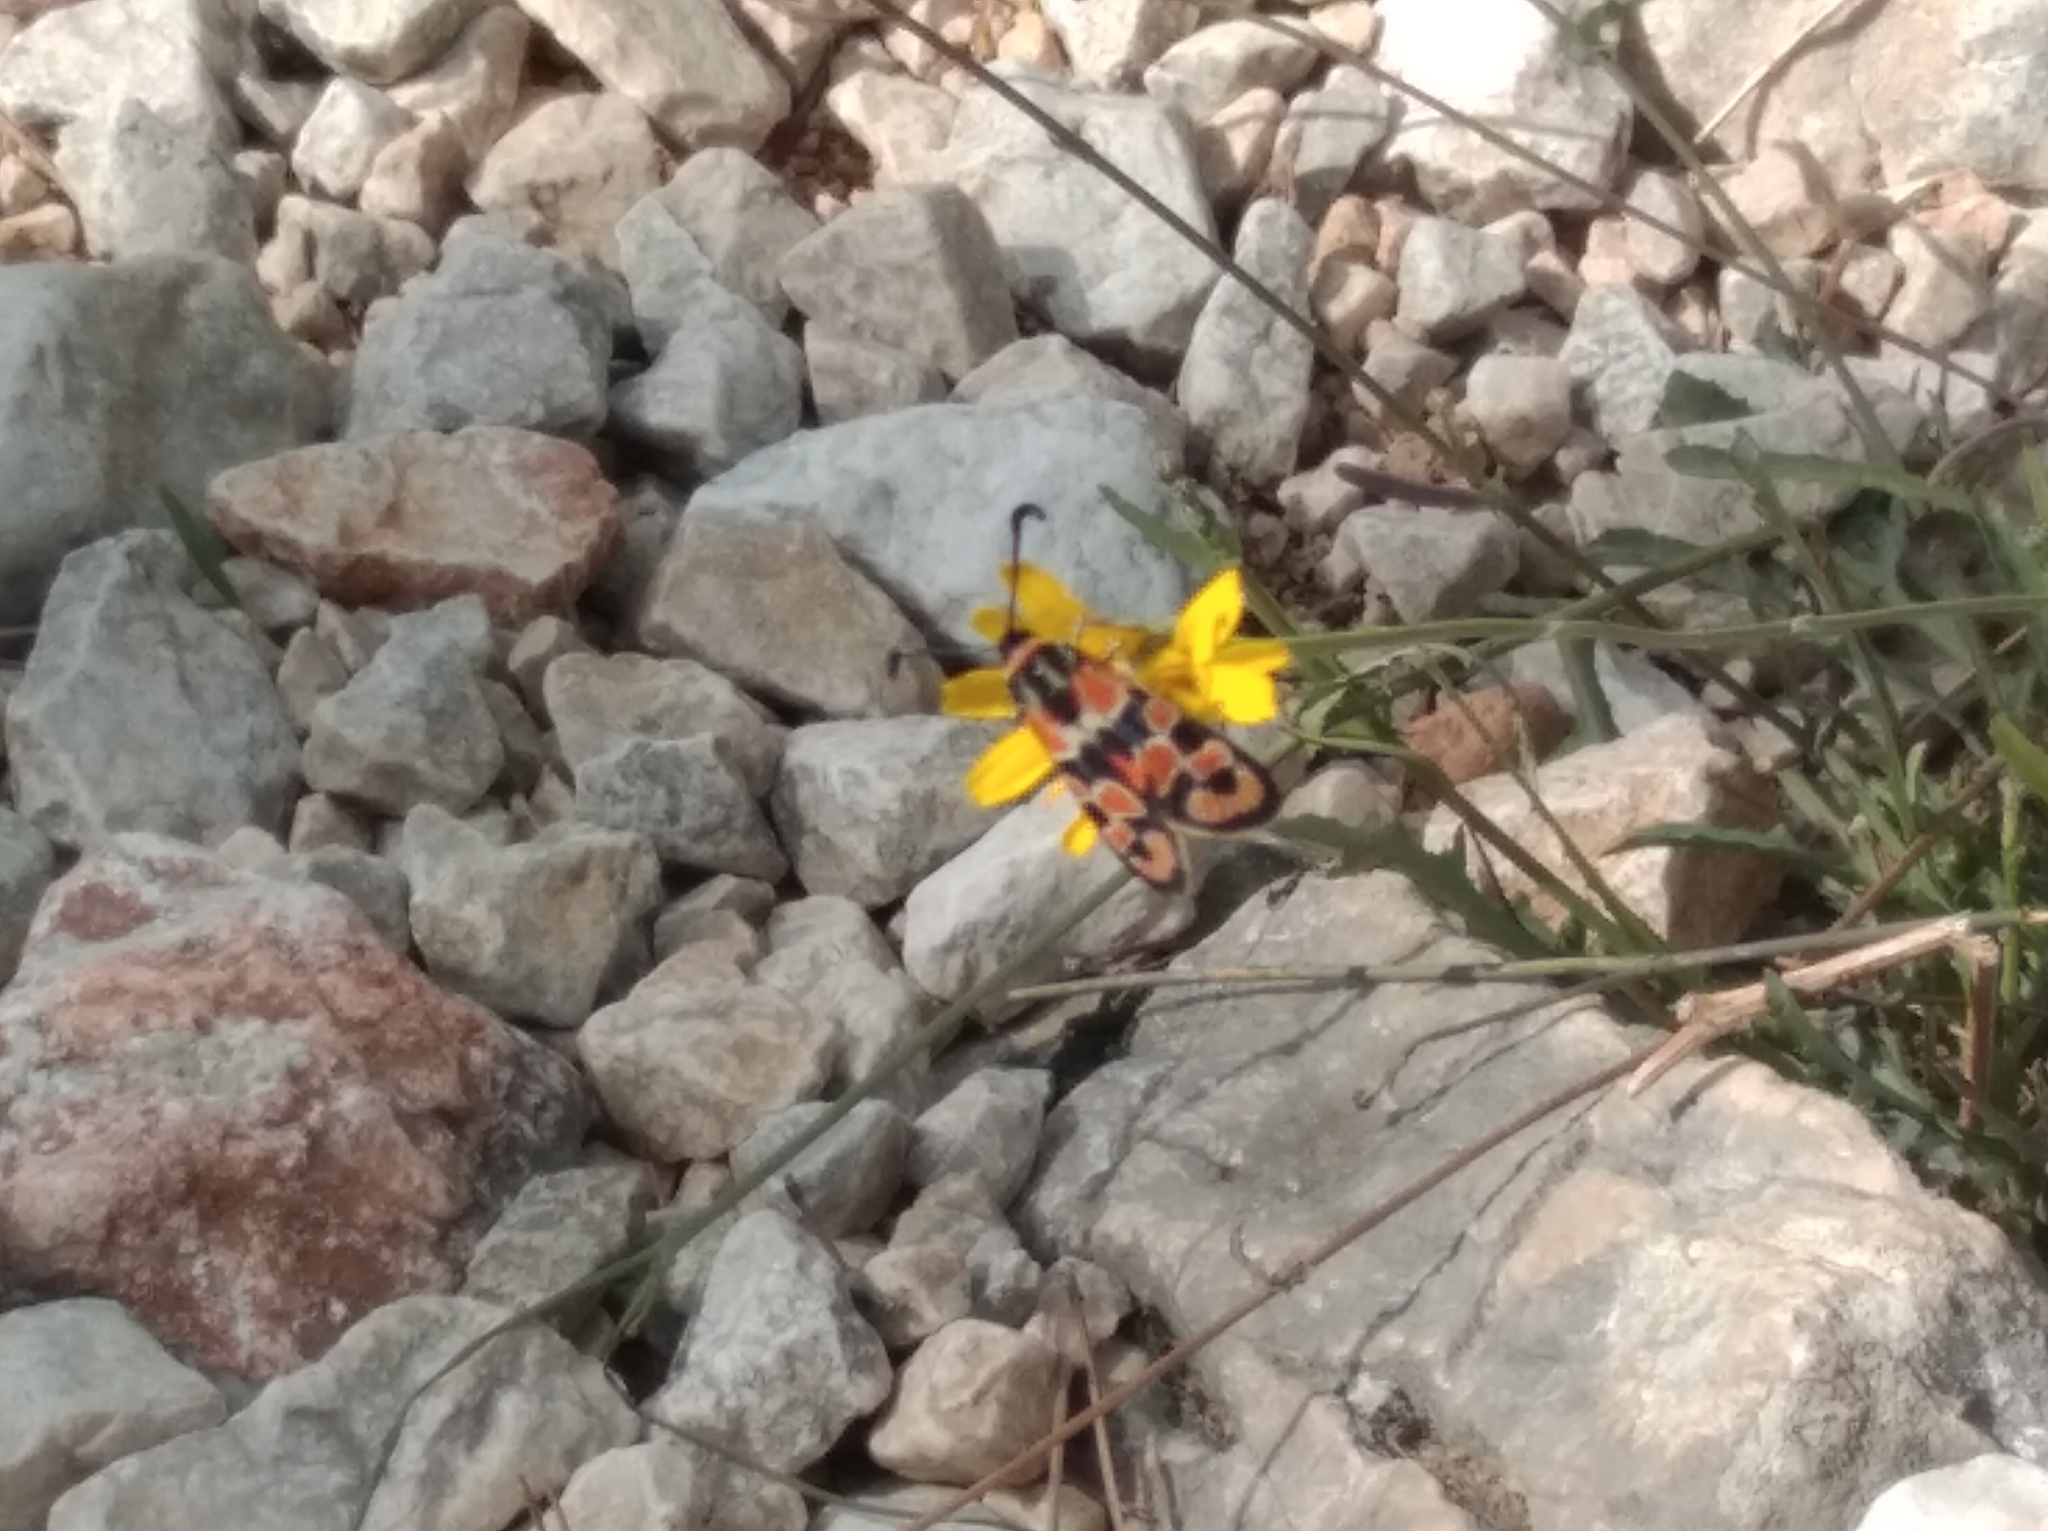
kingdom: Animalia
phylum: Arthropoda
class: Insecta
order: Lepidoptera
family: Zygaenidae
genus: Zygaena
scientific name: Zygaena fausta
